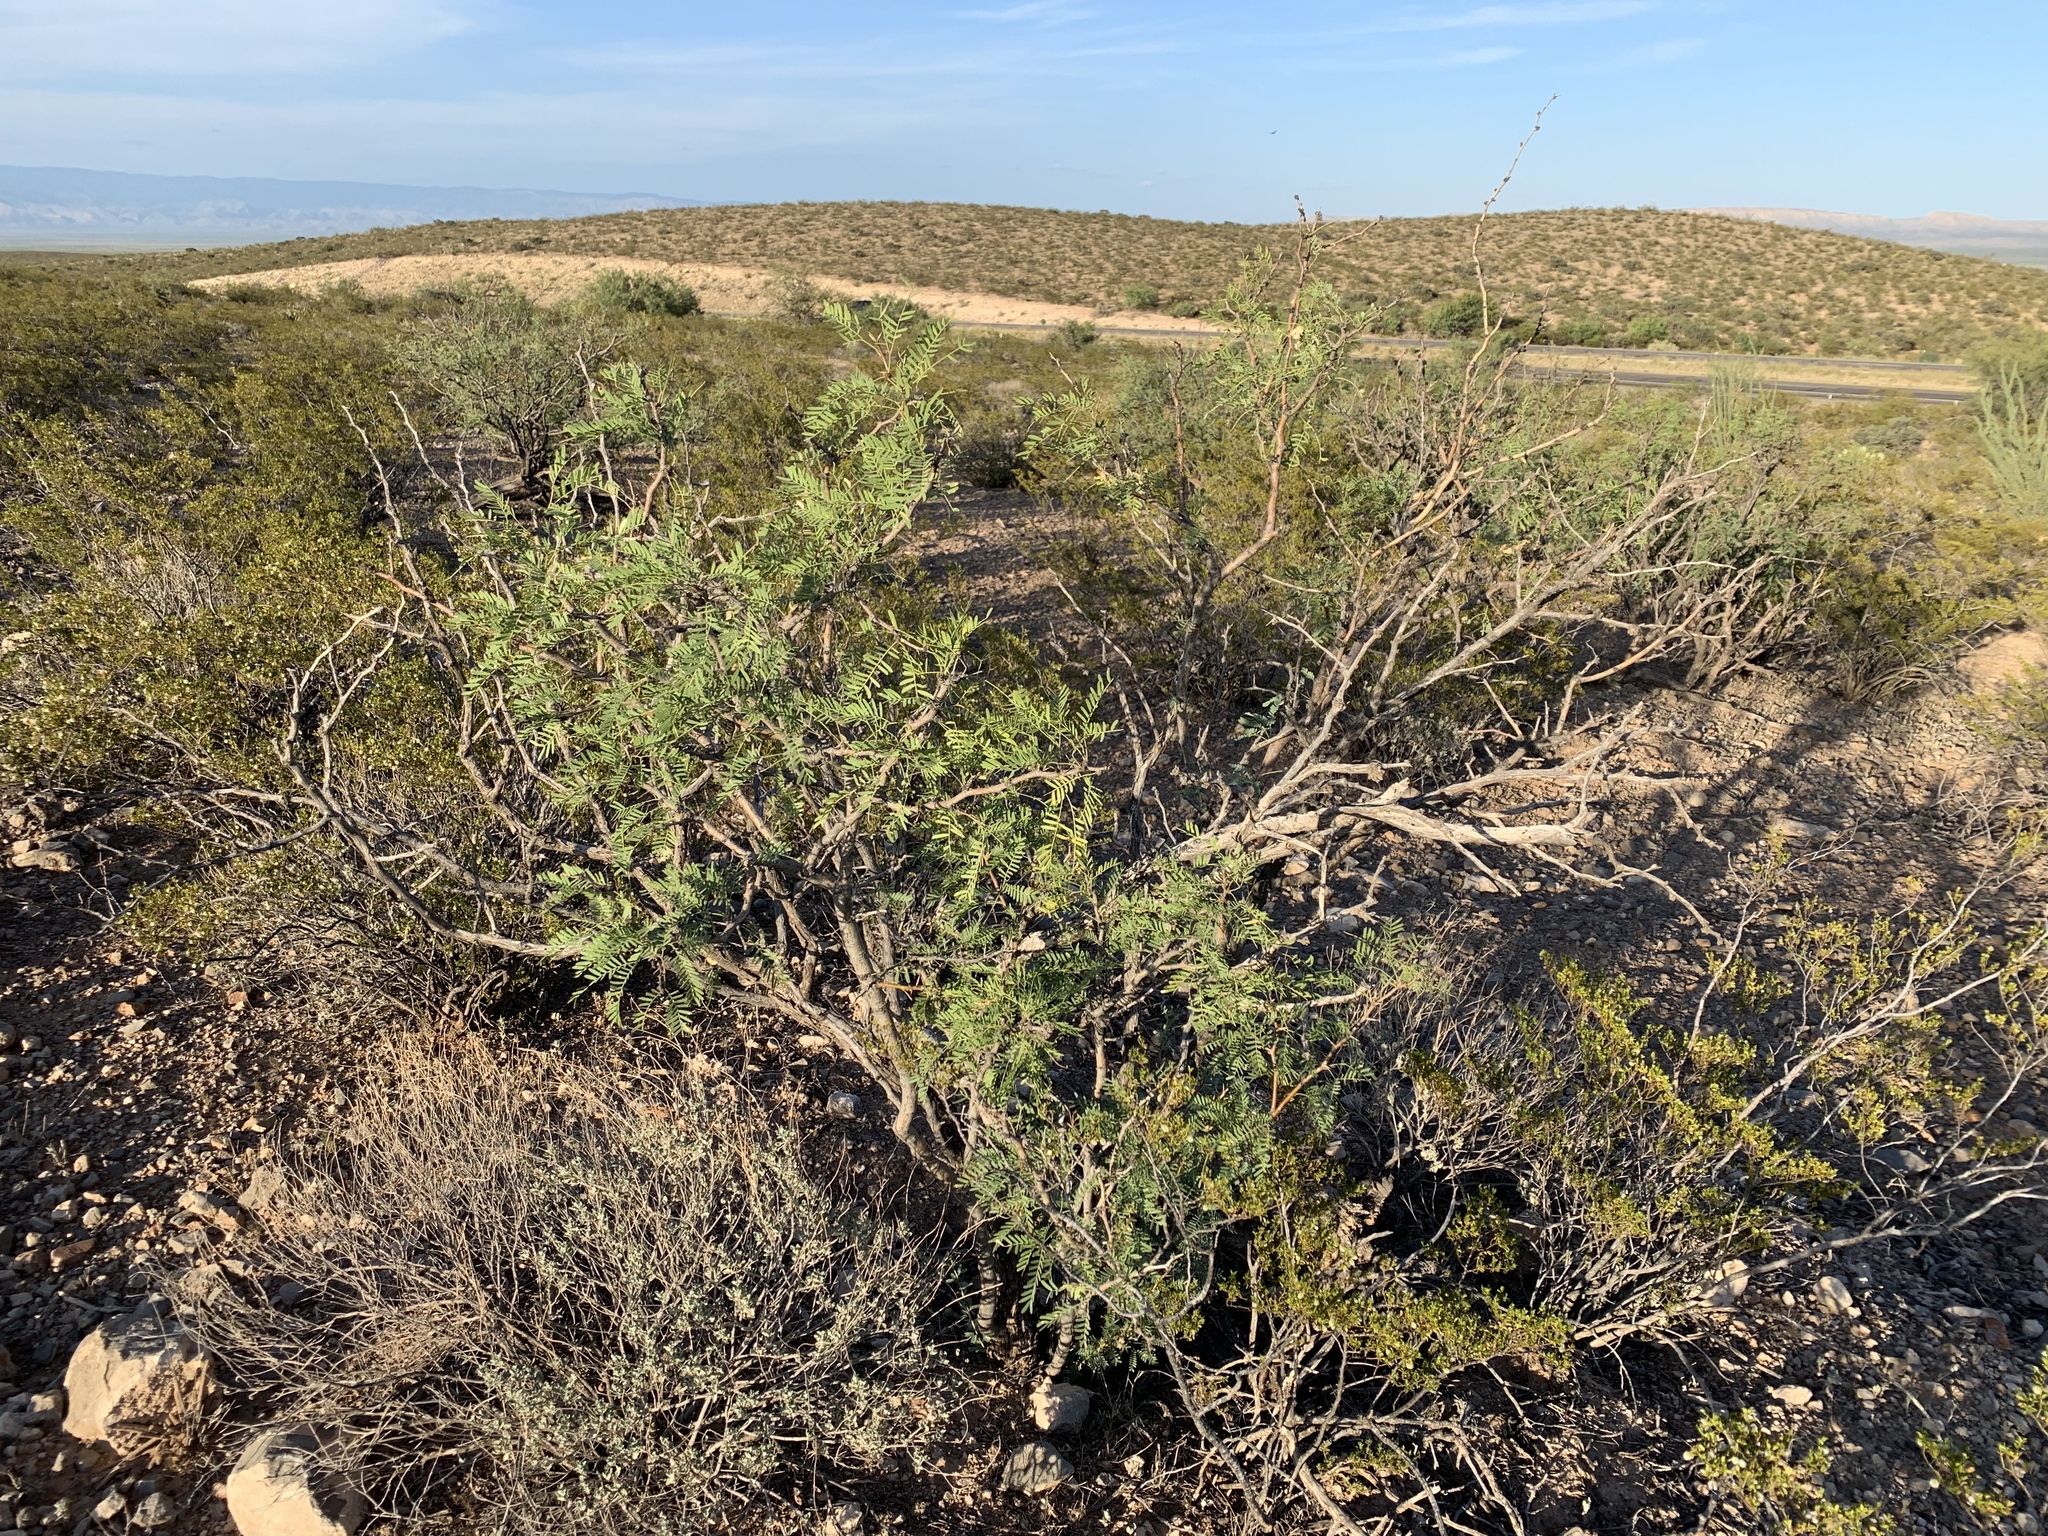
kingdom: Plantae
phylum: Tracheophyta
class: Magnoliopsida
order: Fabales
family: Fabaceae
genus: Prosopis
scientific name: Prosopis glandulosa
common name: Honey mesquite
